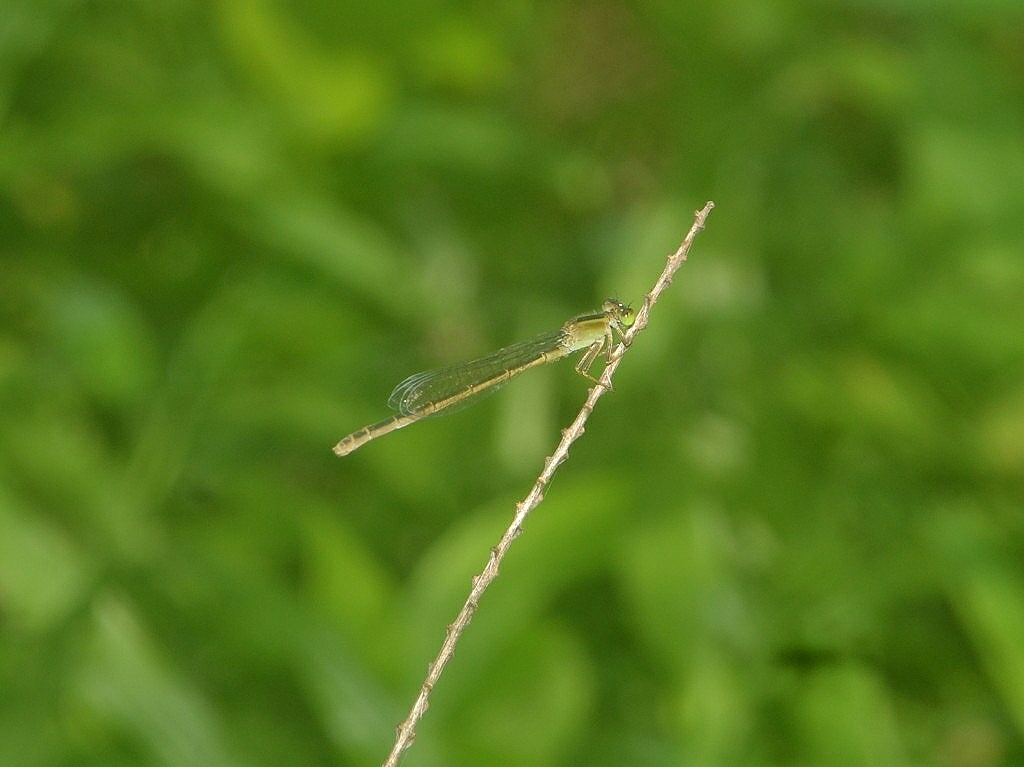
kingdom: Animalia
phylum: Arthropoda
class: Insecta
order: Odonata
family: Coenagrionidae
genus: Ischnura
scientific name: Ischnura senegalensis
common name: Tropical bluetail
